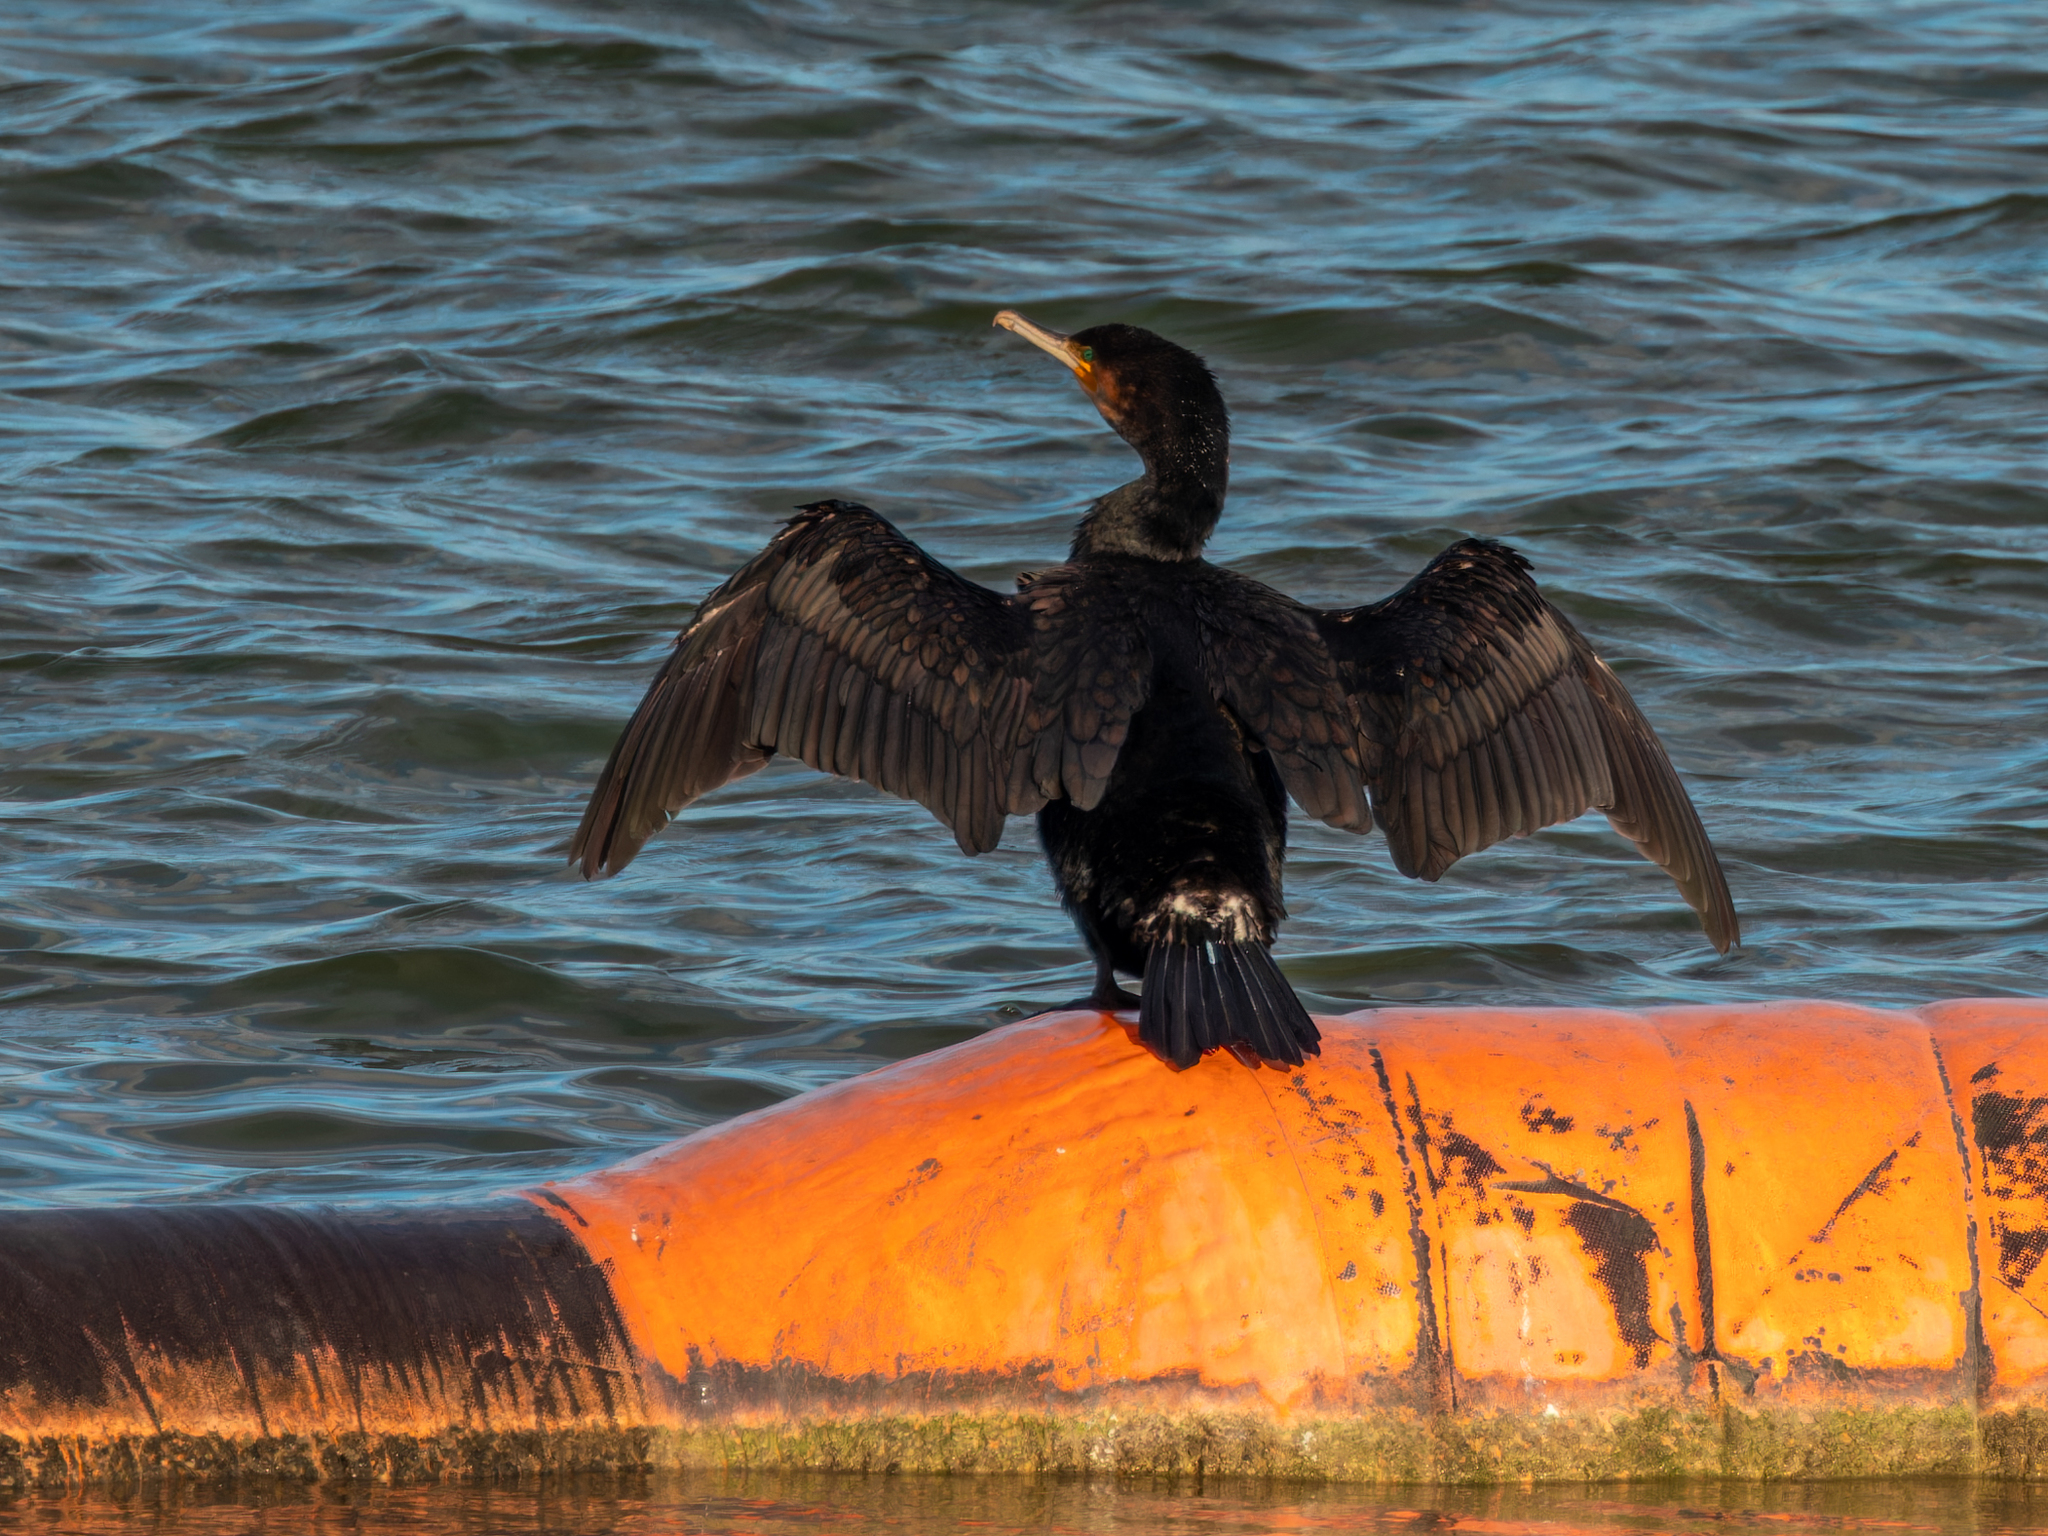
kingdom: Animalia
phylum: Chordata
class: Aves
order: Suliformes
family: Phalacrocoracidae
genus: Phalacrocorax
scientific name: Phalacrocorax carbo
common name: Great cormorant
